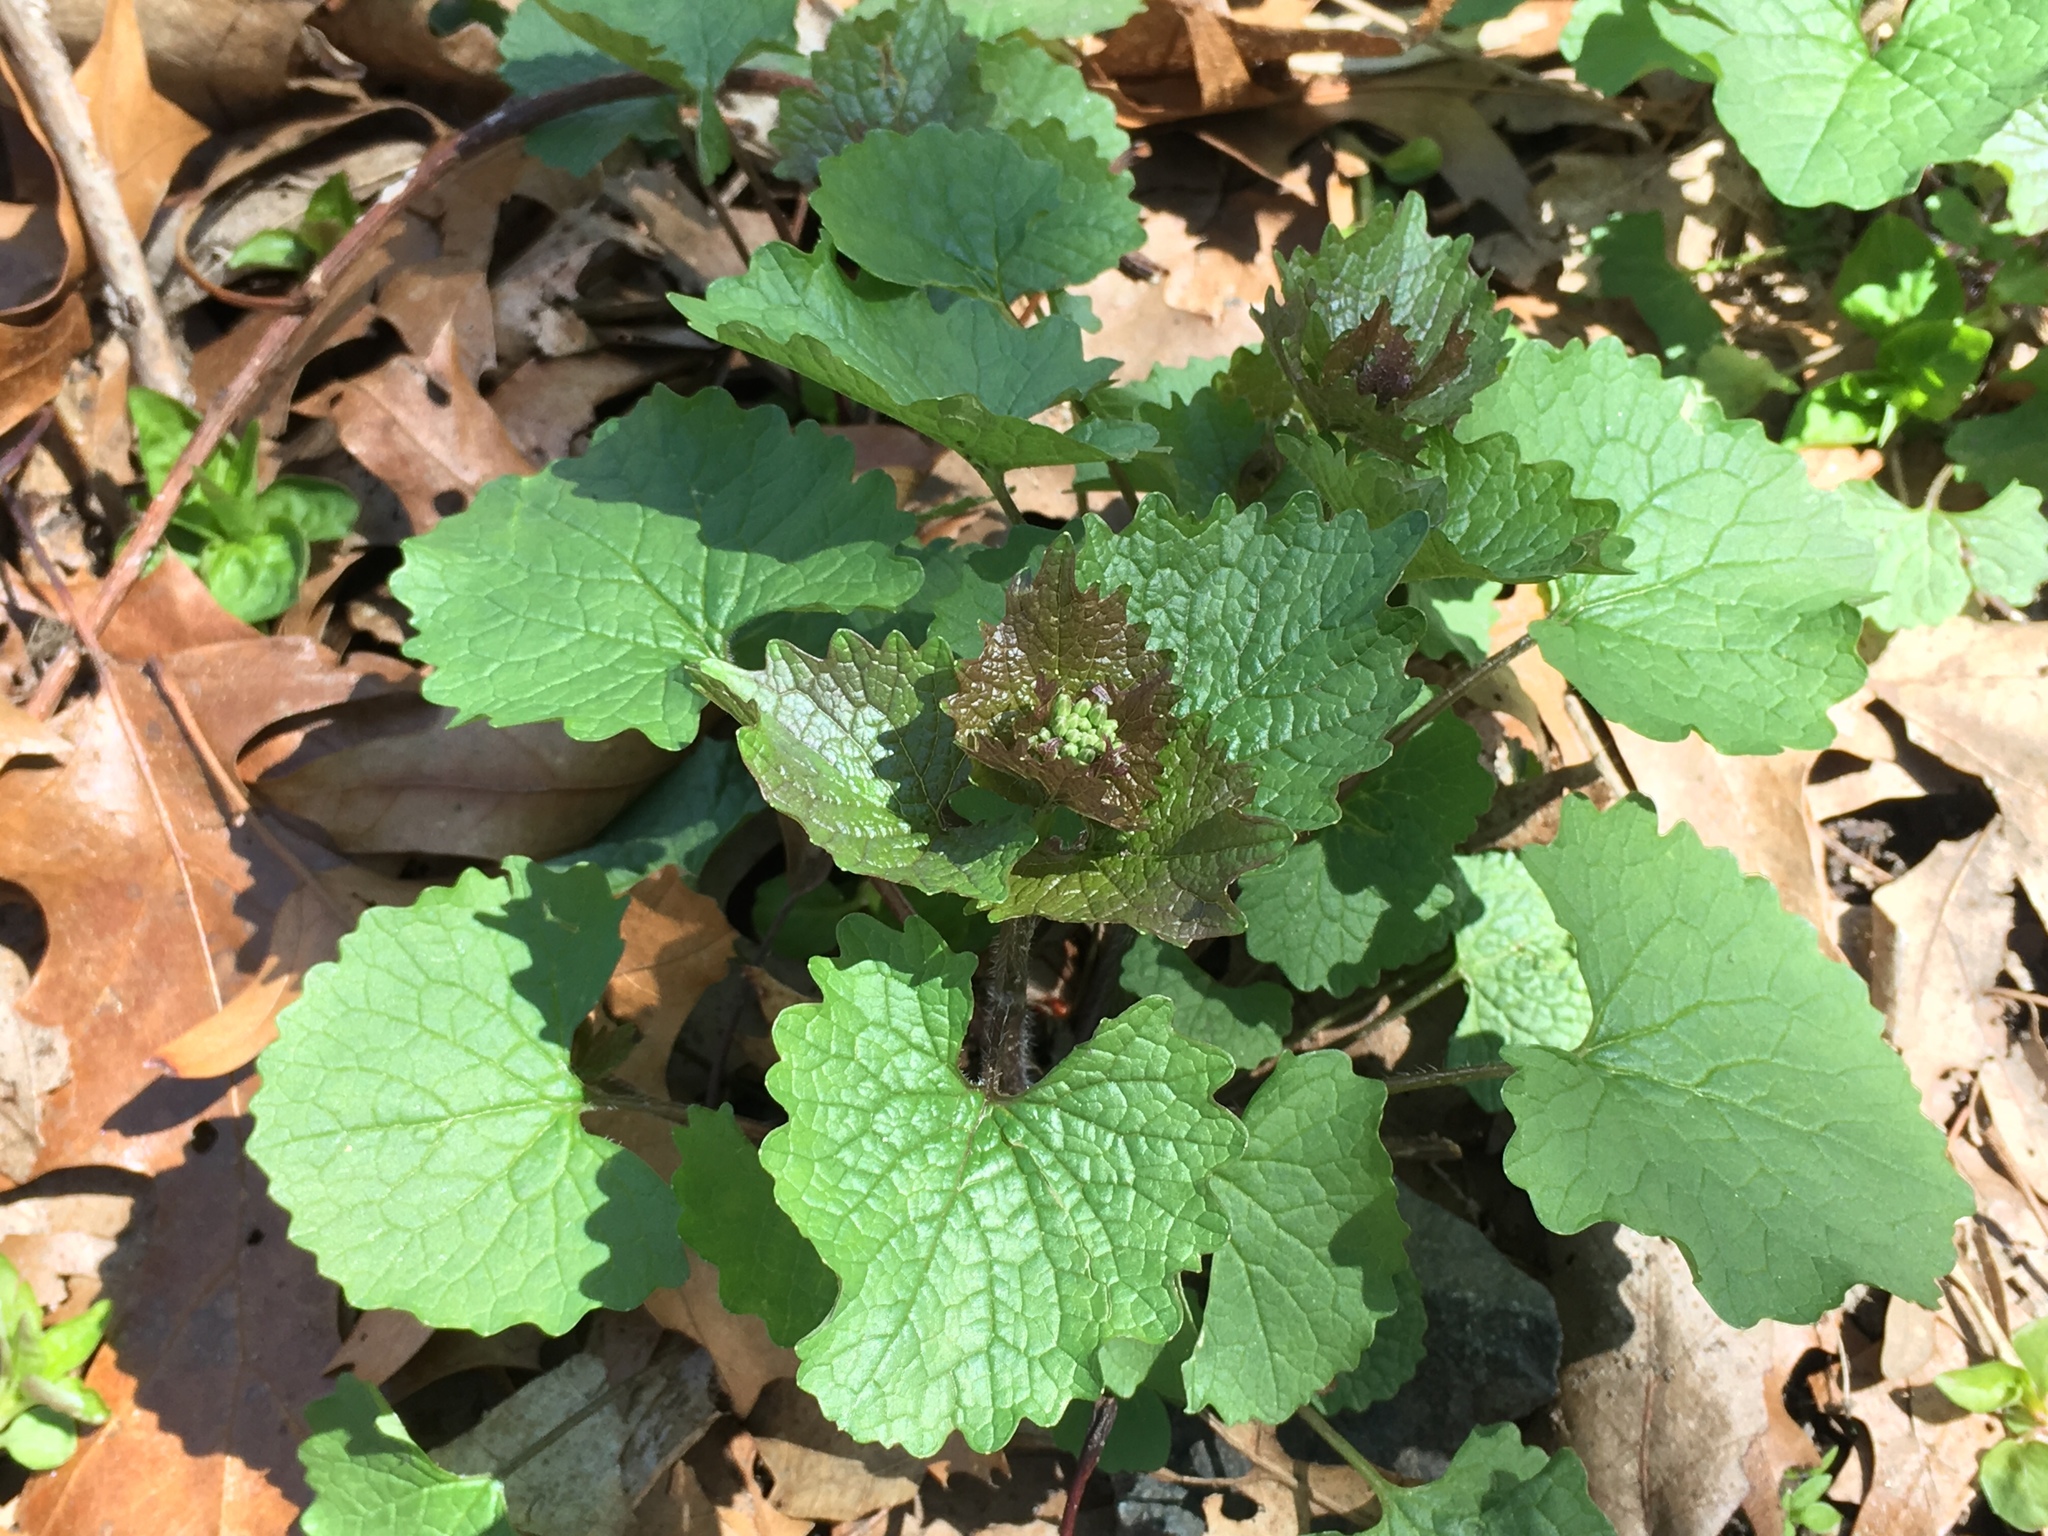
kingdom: Plantae
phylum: Tracheophyta
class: Magnoliopsida
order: Brassicales
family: Brassicaceae
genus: Alliaria
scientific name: Alliaria petiolata
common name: Garlic mustard
